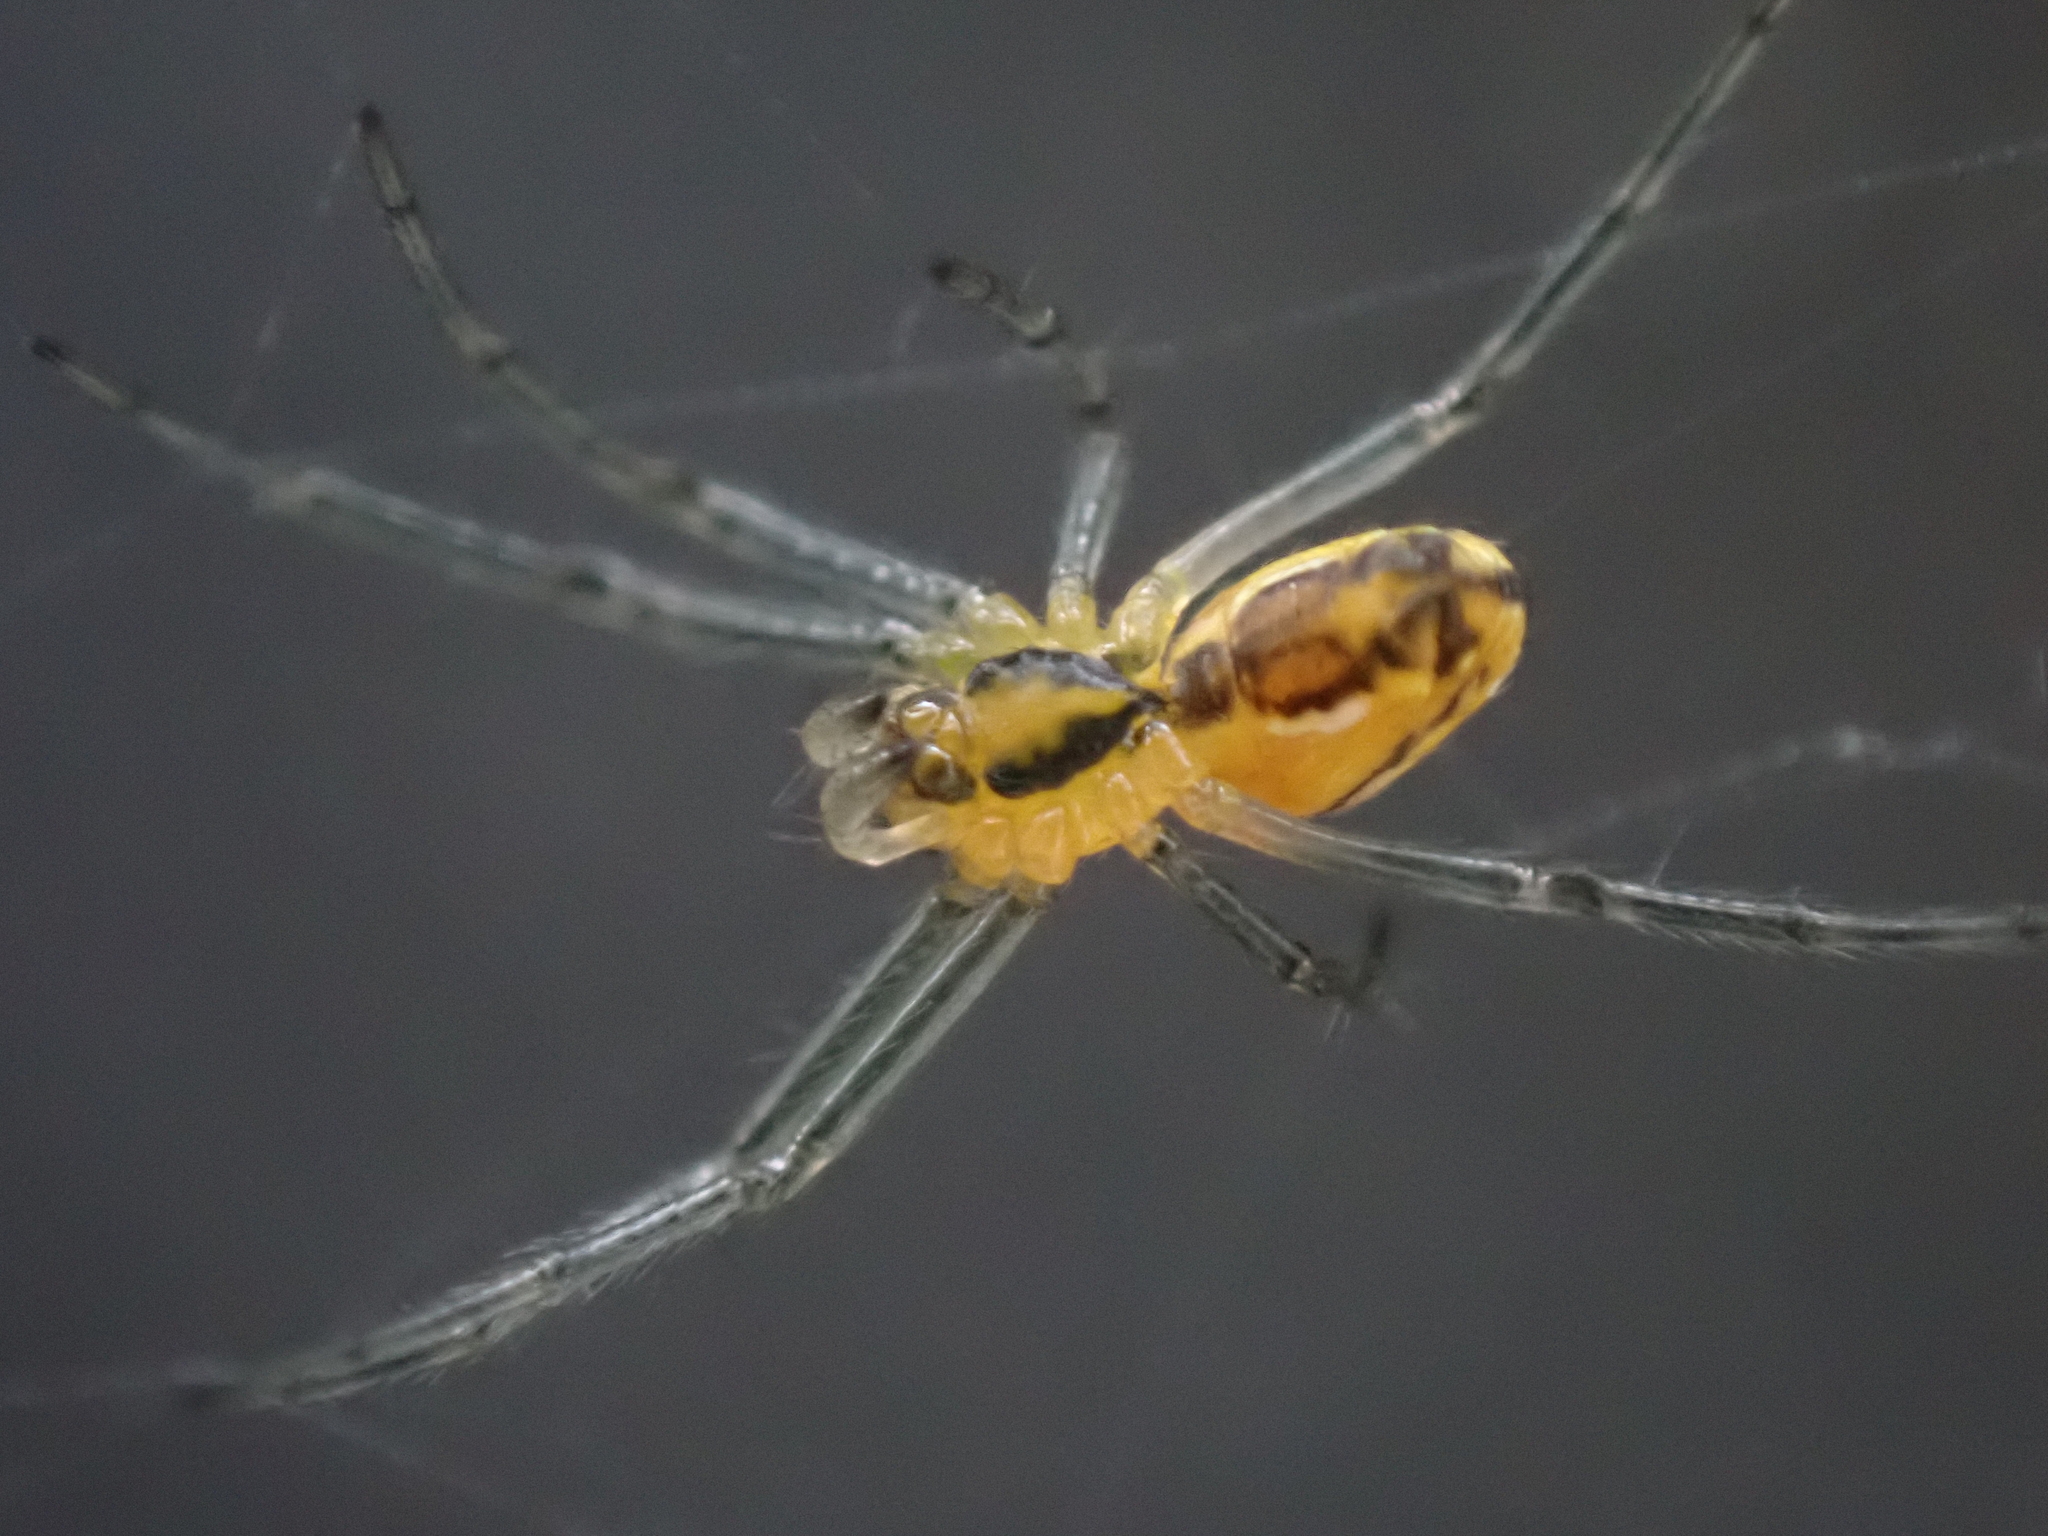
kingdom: Animalia
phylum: Arthropoda
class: Arachnida
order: Araneae
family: Araneidae
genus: Mecynogea
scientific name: Mecynogea lemniscata
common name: Orb weavers
